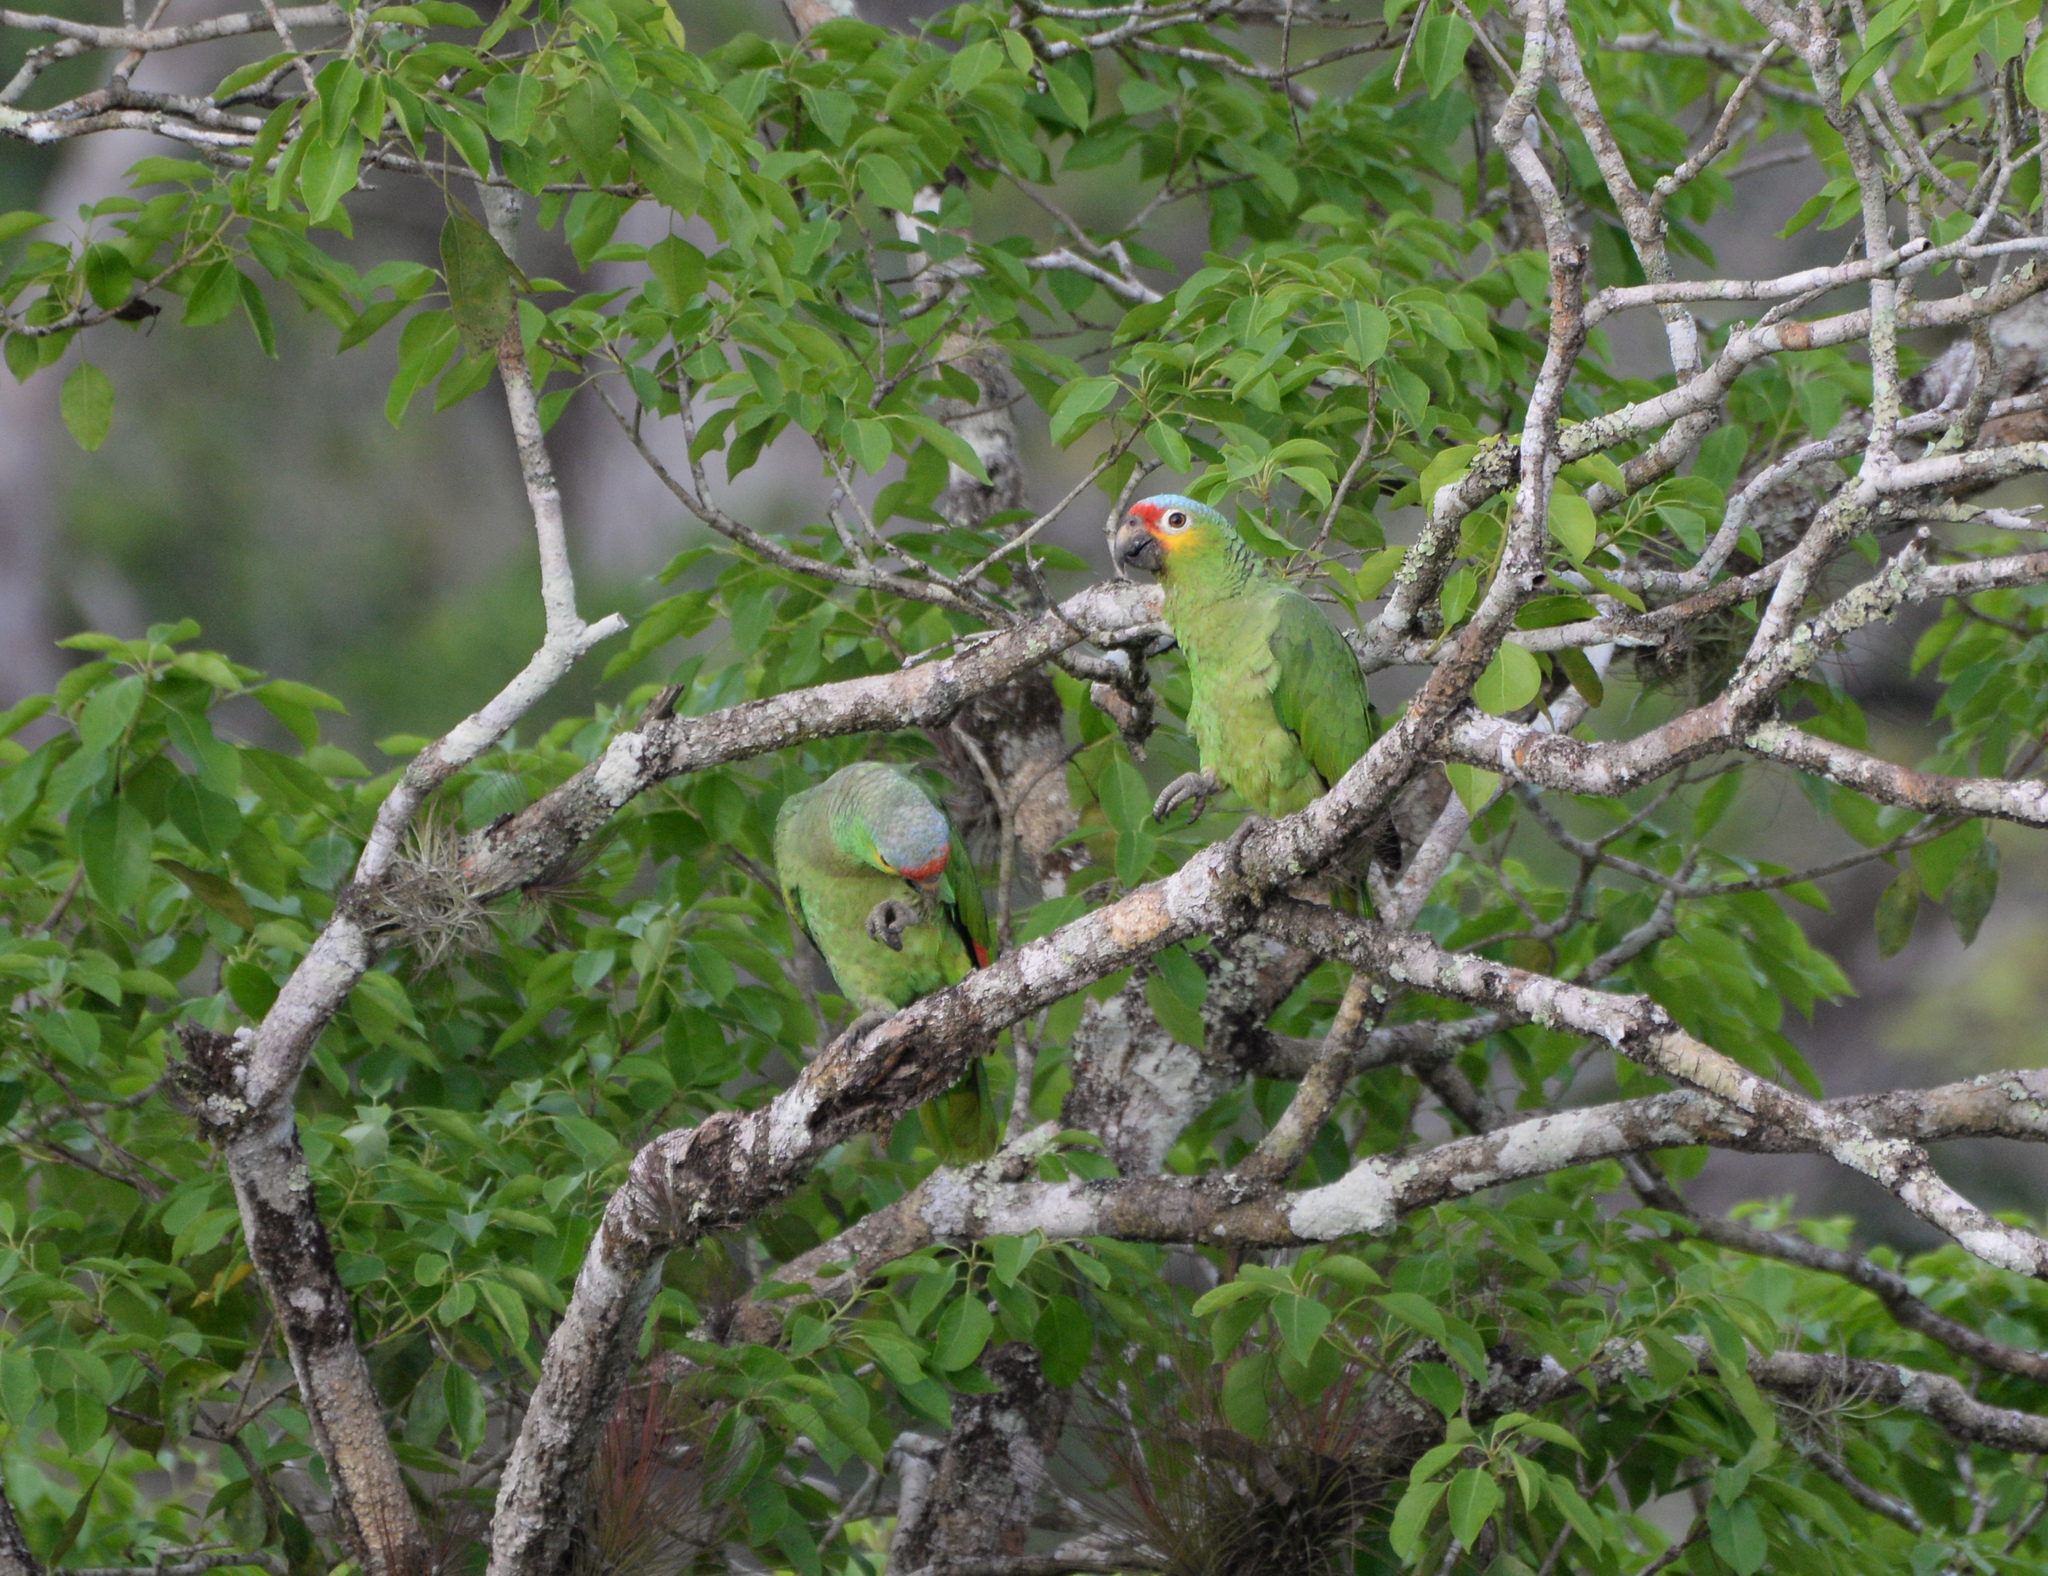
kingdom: Animalia
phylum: Chordata
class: Aves
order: Psittaciformes
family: Psittacidae
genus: Amazona
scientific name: Amazona autumnalis
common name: Red-lored amazon
